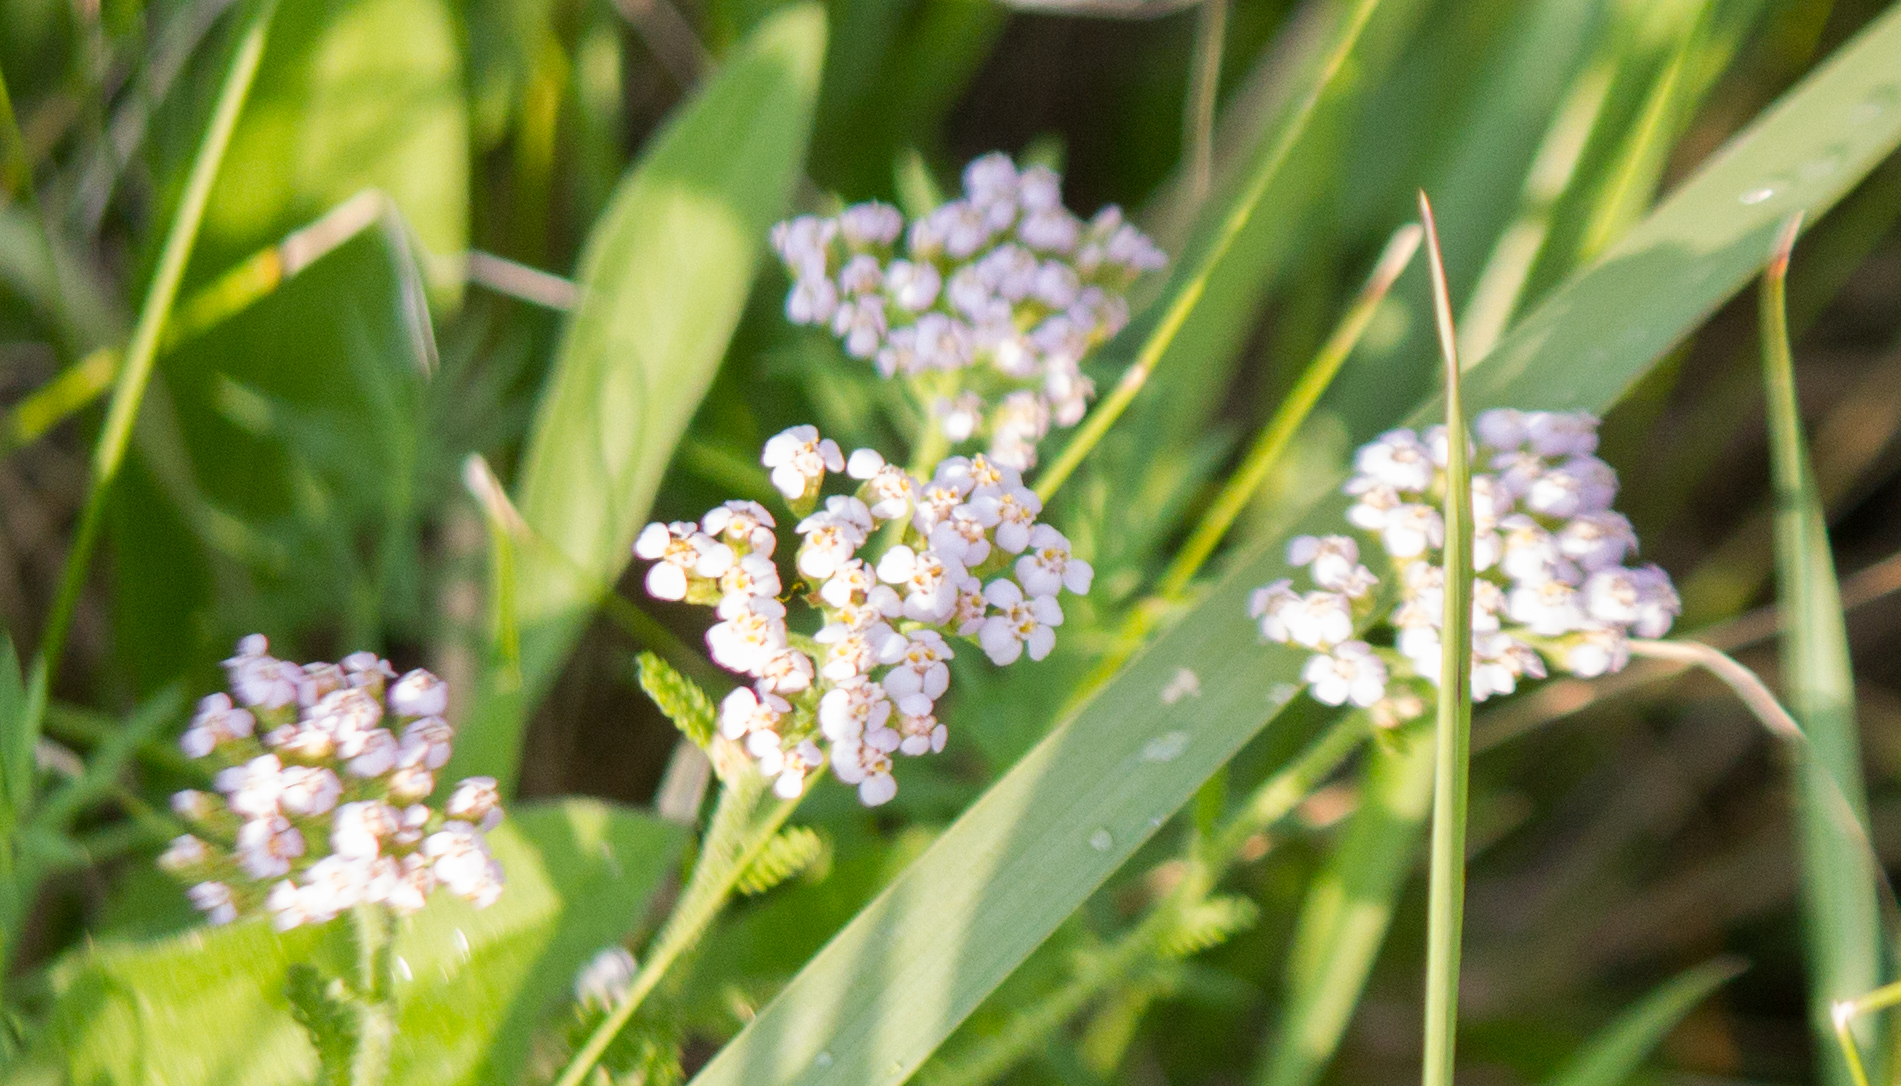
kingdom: Plantae
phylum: Tracheophyta
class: Magnoliopsida
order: Asterales
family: Asteraceae
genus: Achillea
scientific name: Achillea millefolium
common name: Yarrow
